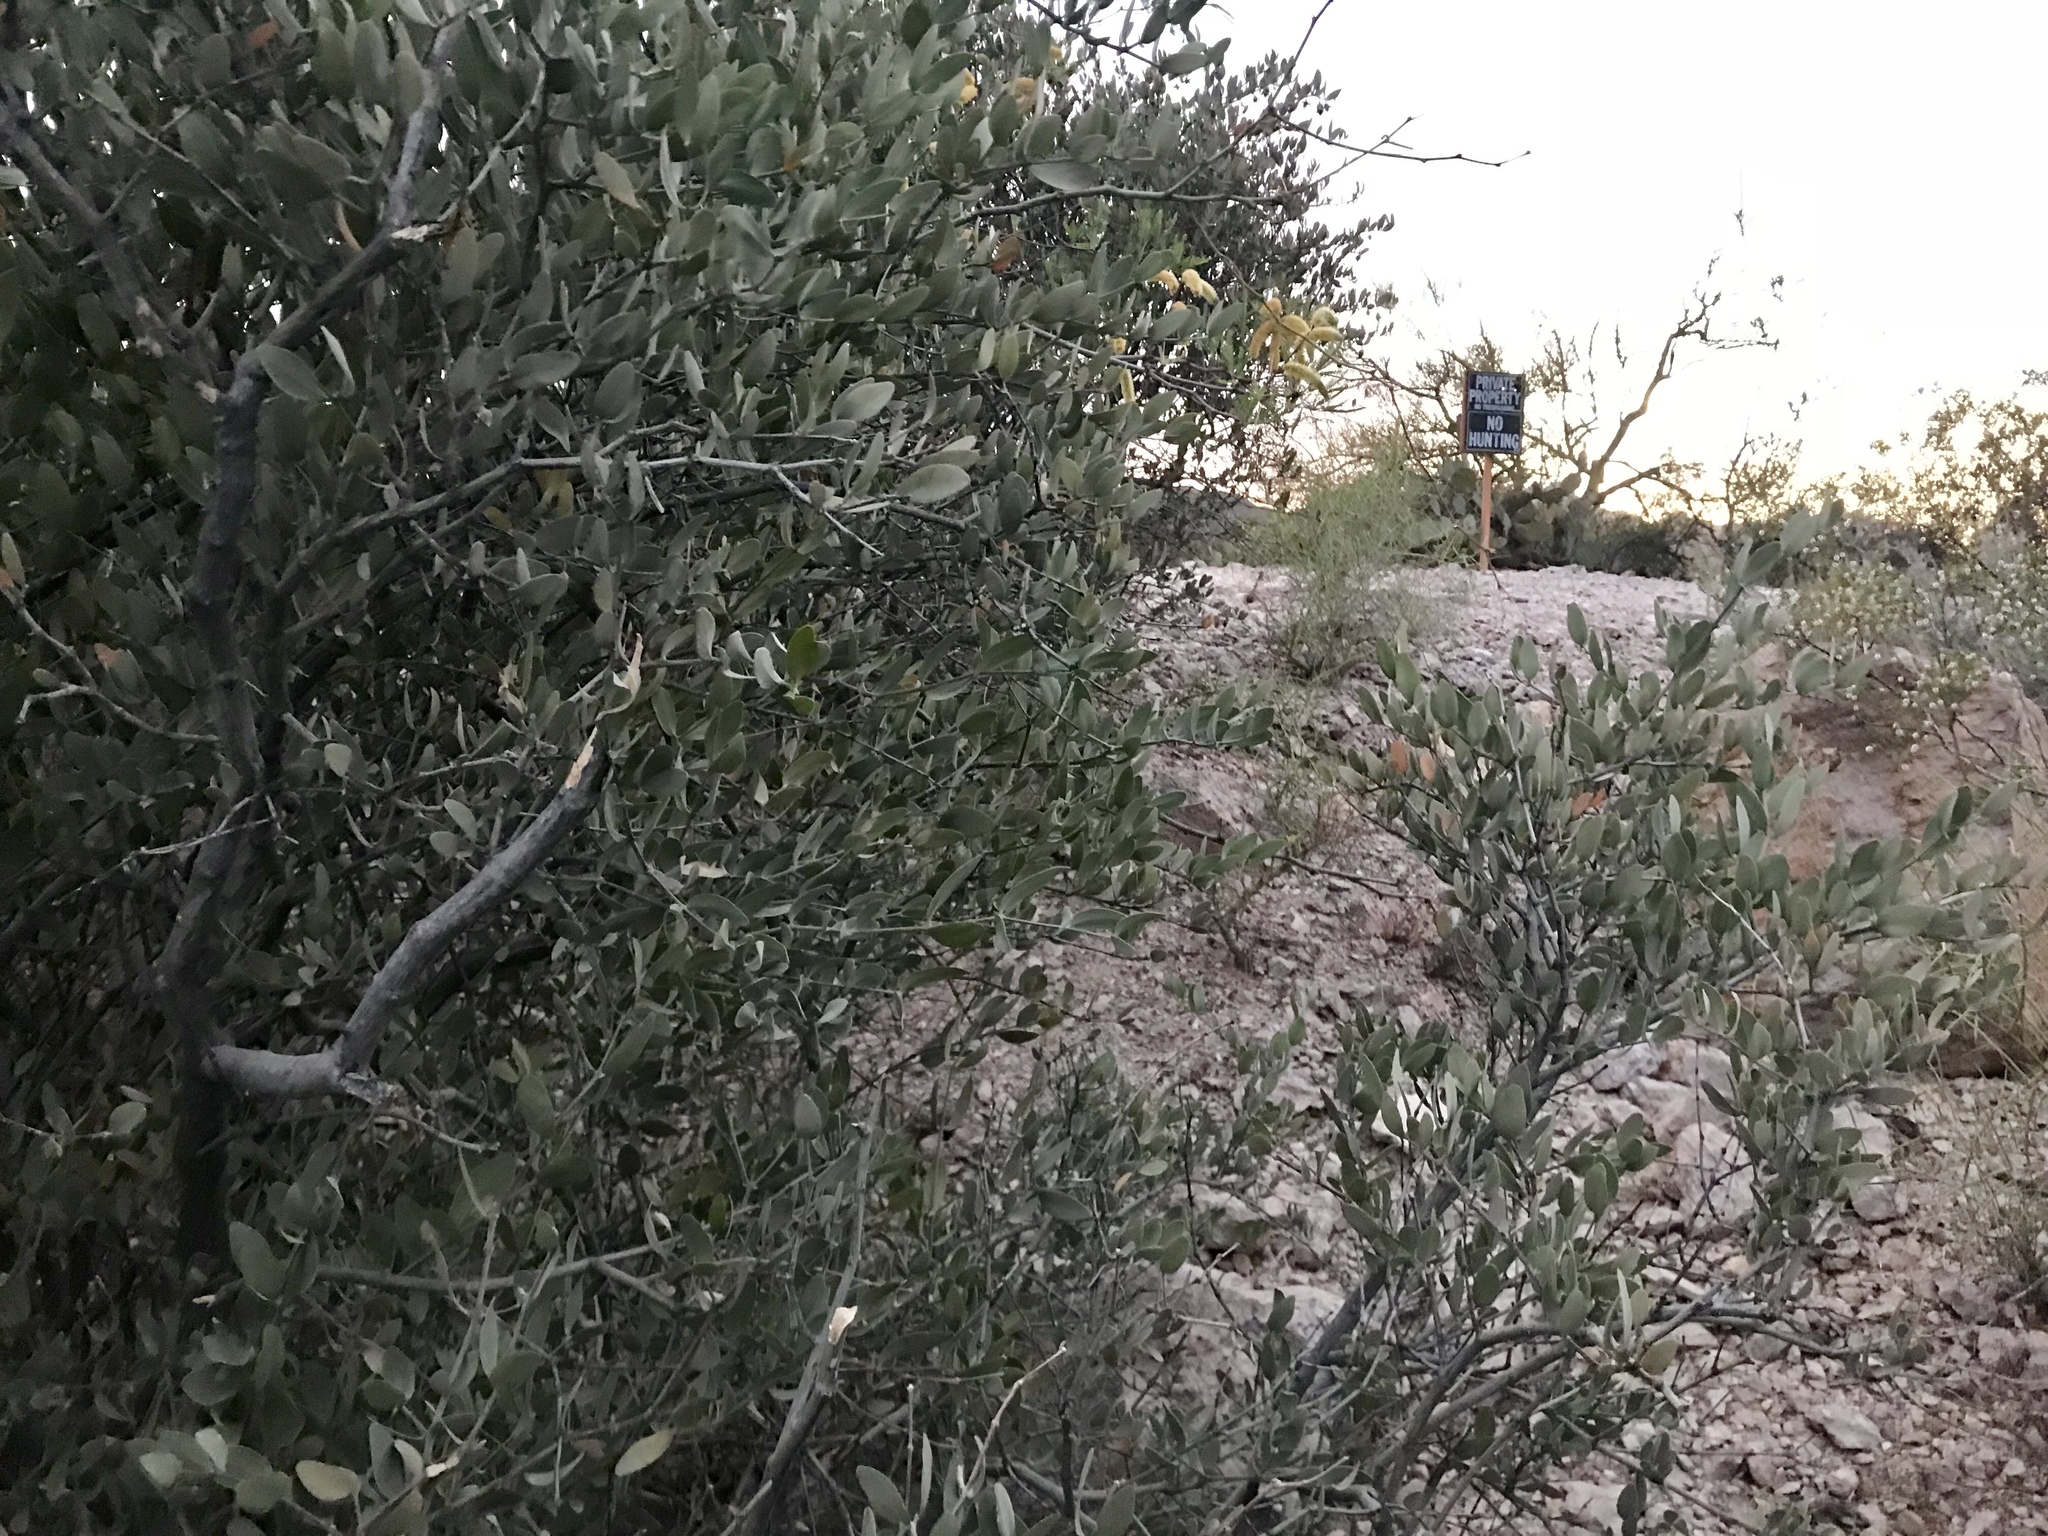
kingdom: Plantae
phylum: Tracheophyta
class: Magnoliopsida
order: Caryophyllales
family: Simmondsiaceae
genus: Simmondsia
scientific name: Simmondsia chinensis
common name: Jojoba
